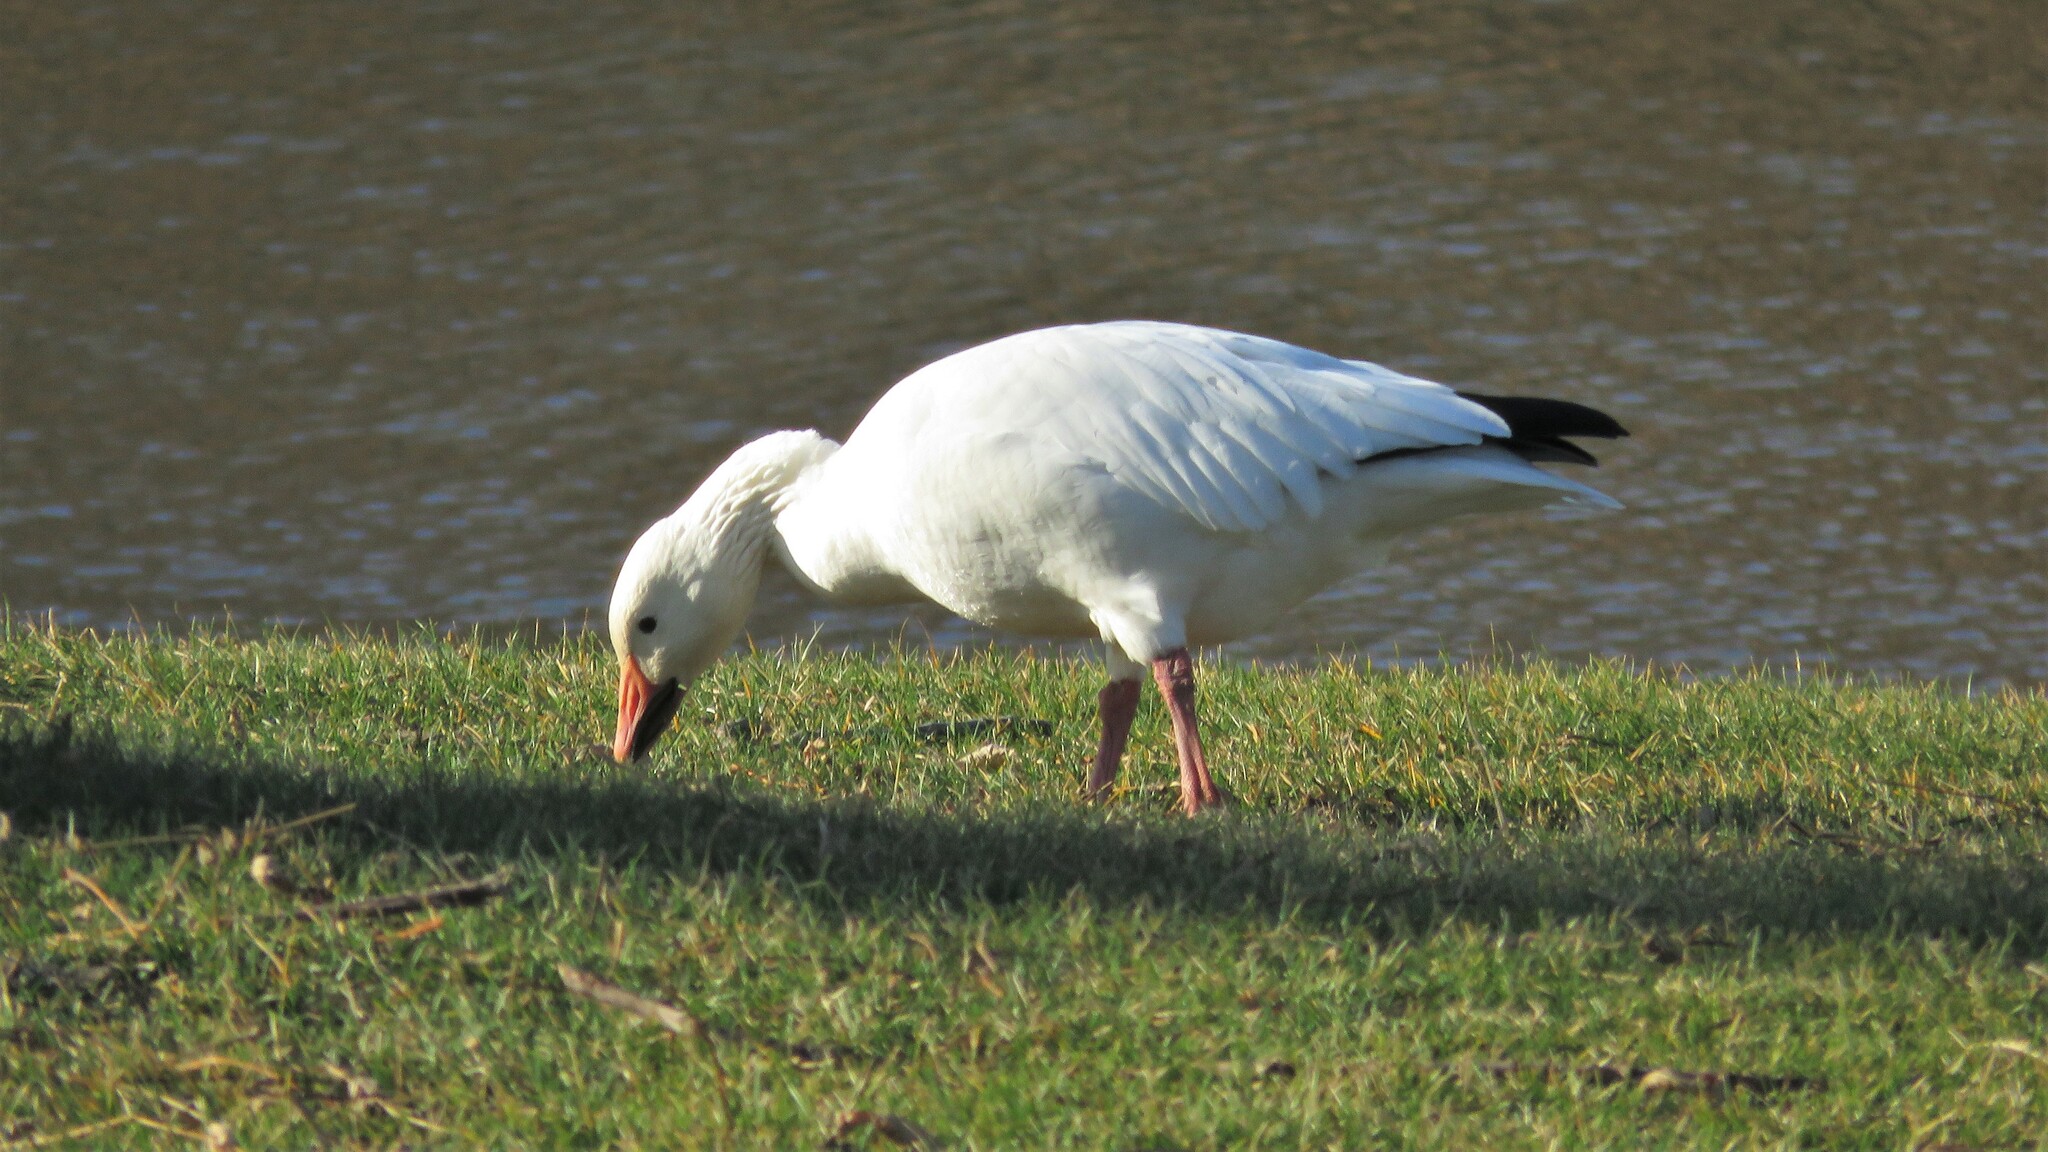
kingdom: Animalia
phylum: Chordata
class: Aves
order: Anseriformes
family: Anatidae
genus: Anser
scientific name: Anser caerulescens
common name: Snow goose
